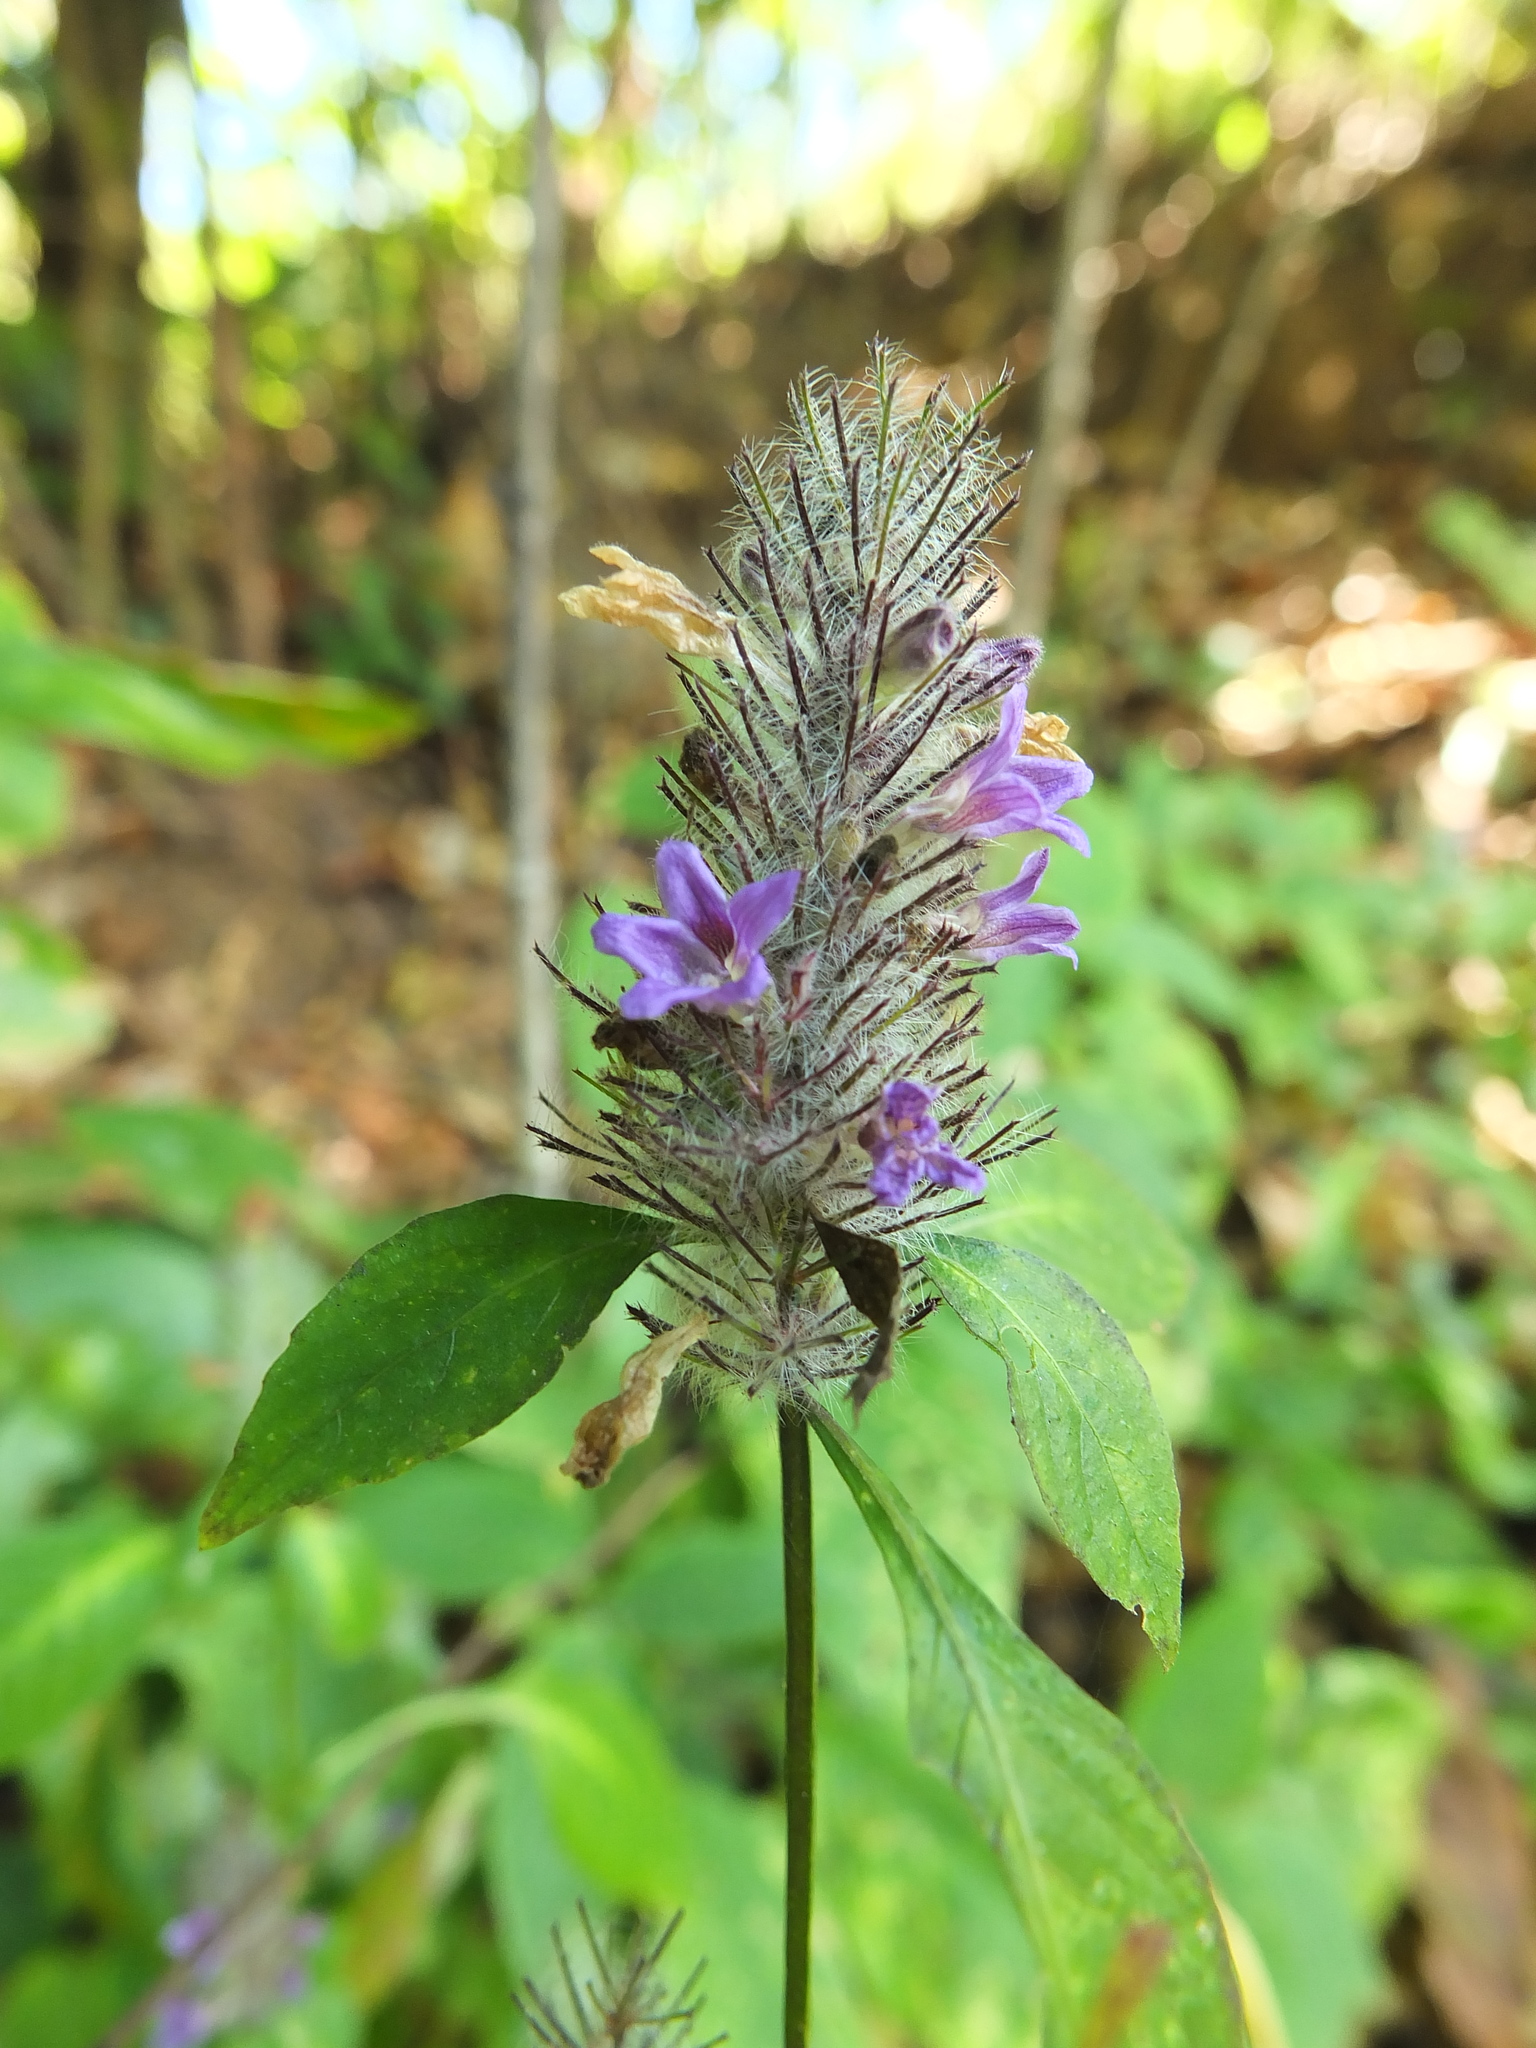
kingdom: Plantae
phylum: Tracheophyta
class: Magnoliopsida
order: Lamiales
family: Acanthaceae
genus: Haplanthodes
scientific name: Haplanthodes verticillatus
